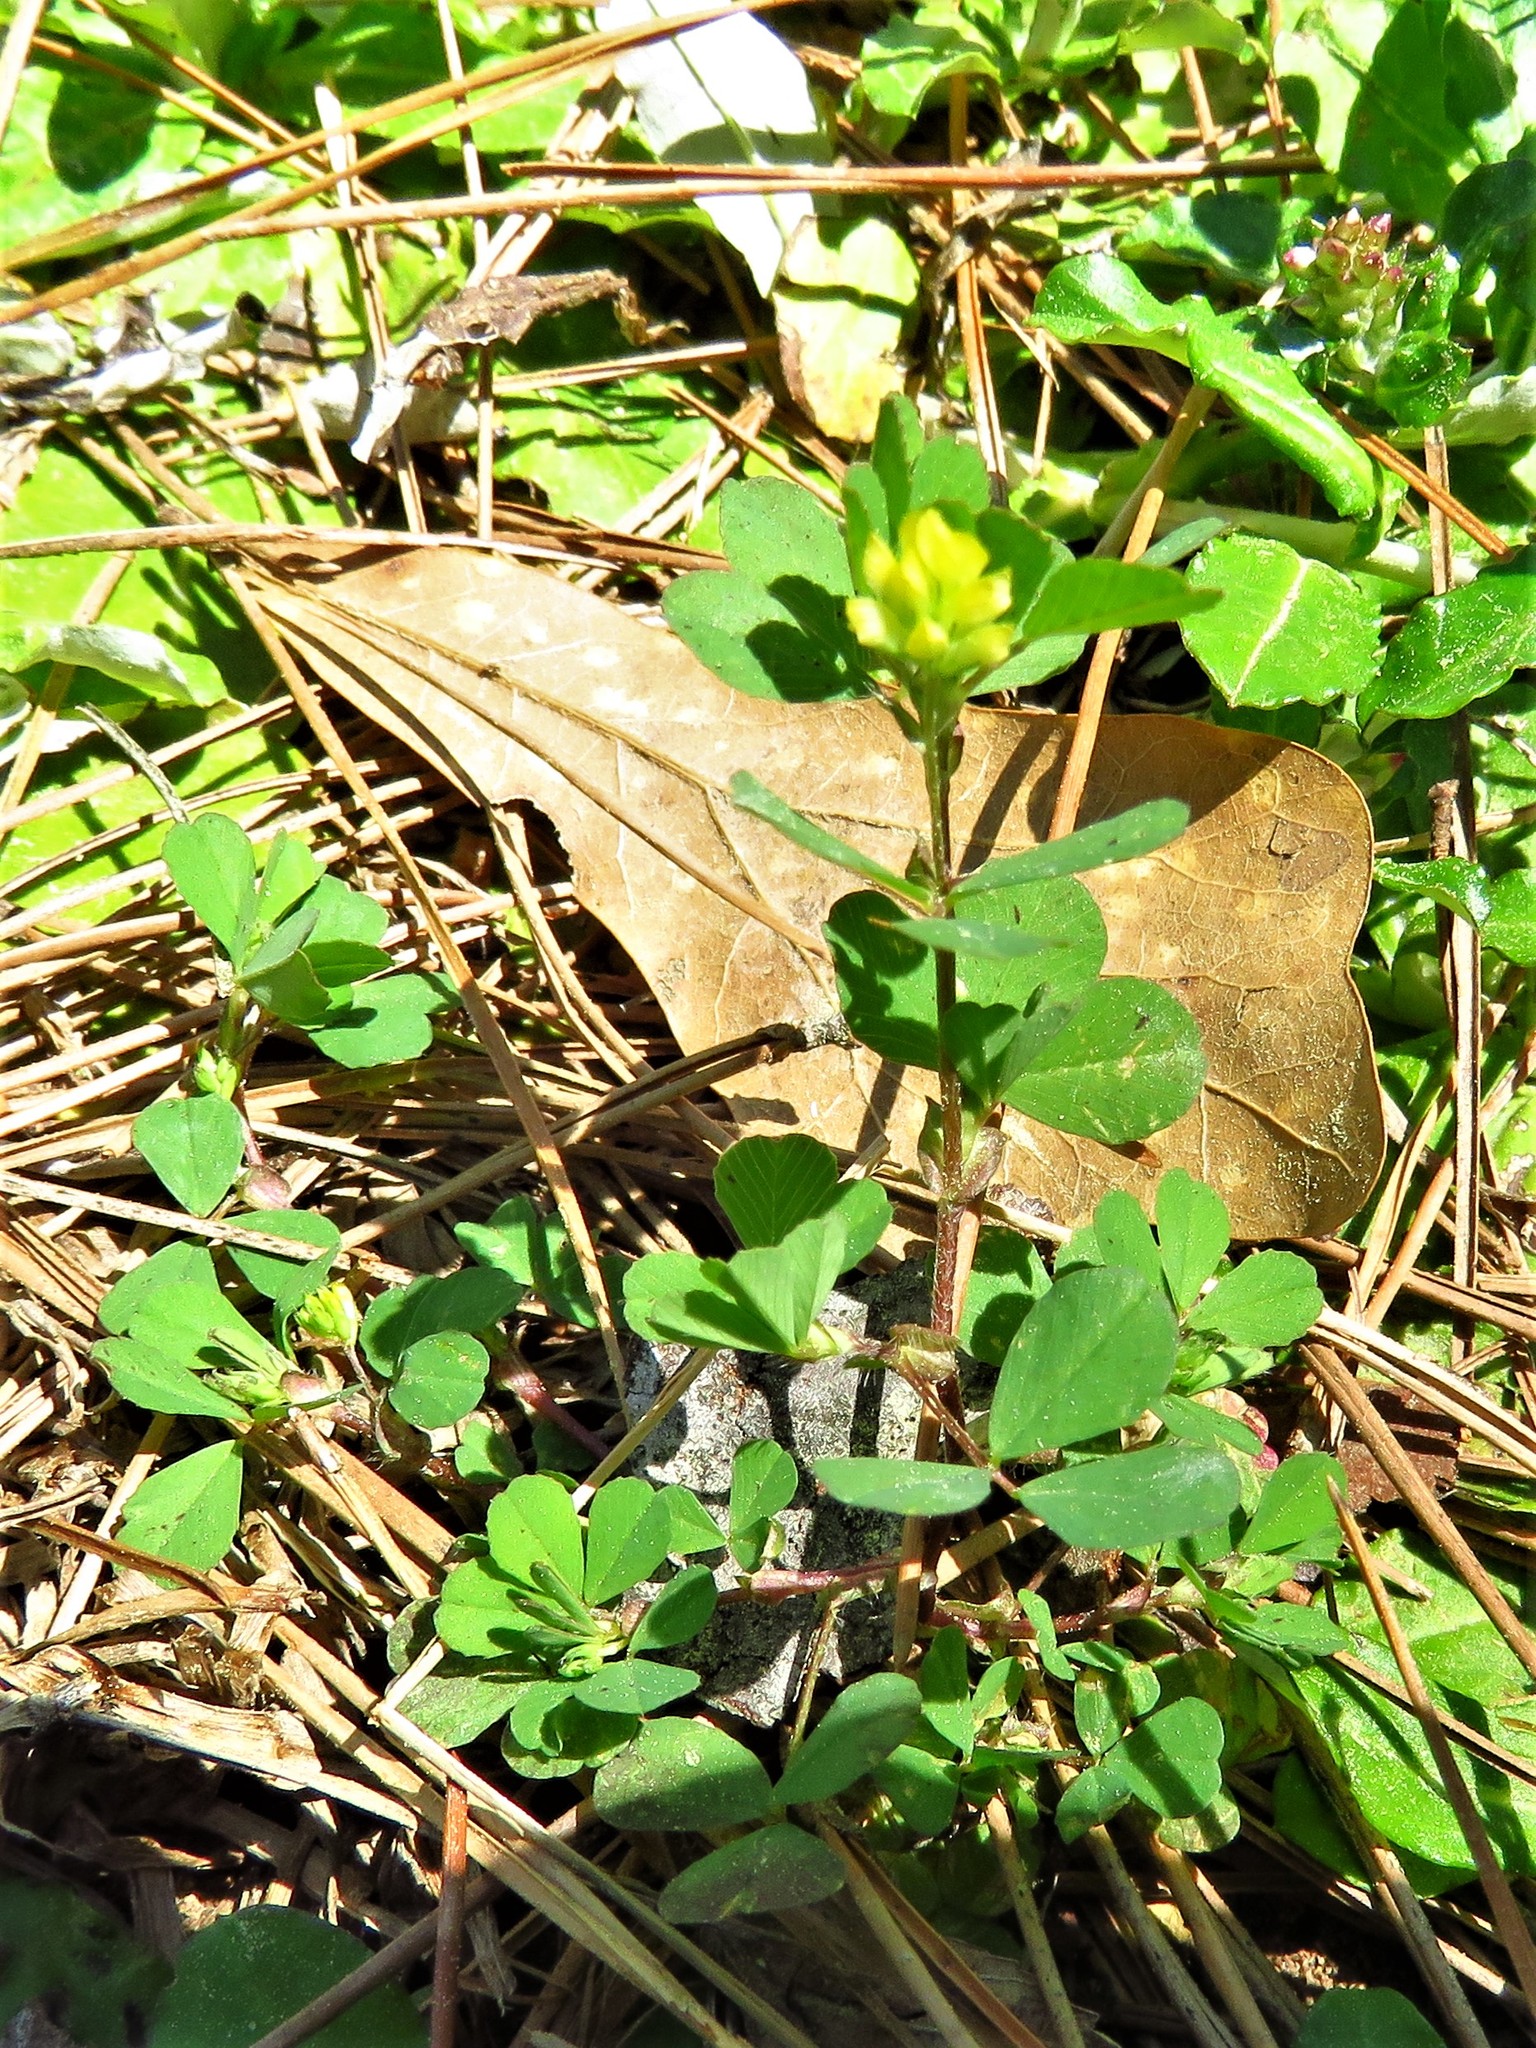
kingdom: Plantae
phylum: Tracheophyta
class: Magnoliopsida
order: Fabales
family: Fabaceae
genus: Trifolium
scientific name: Trifolium dubium
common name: Suckling clover
